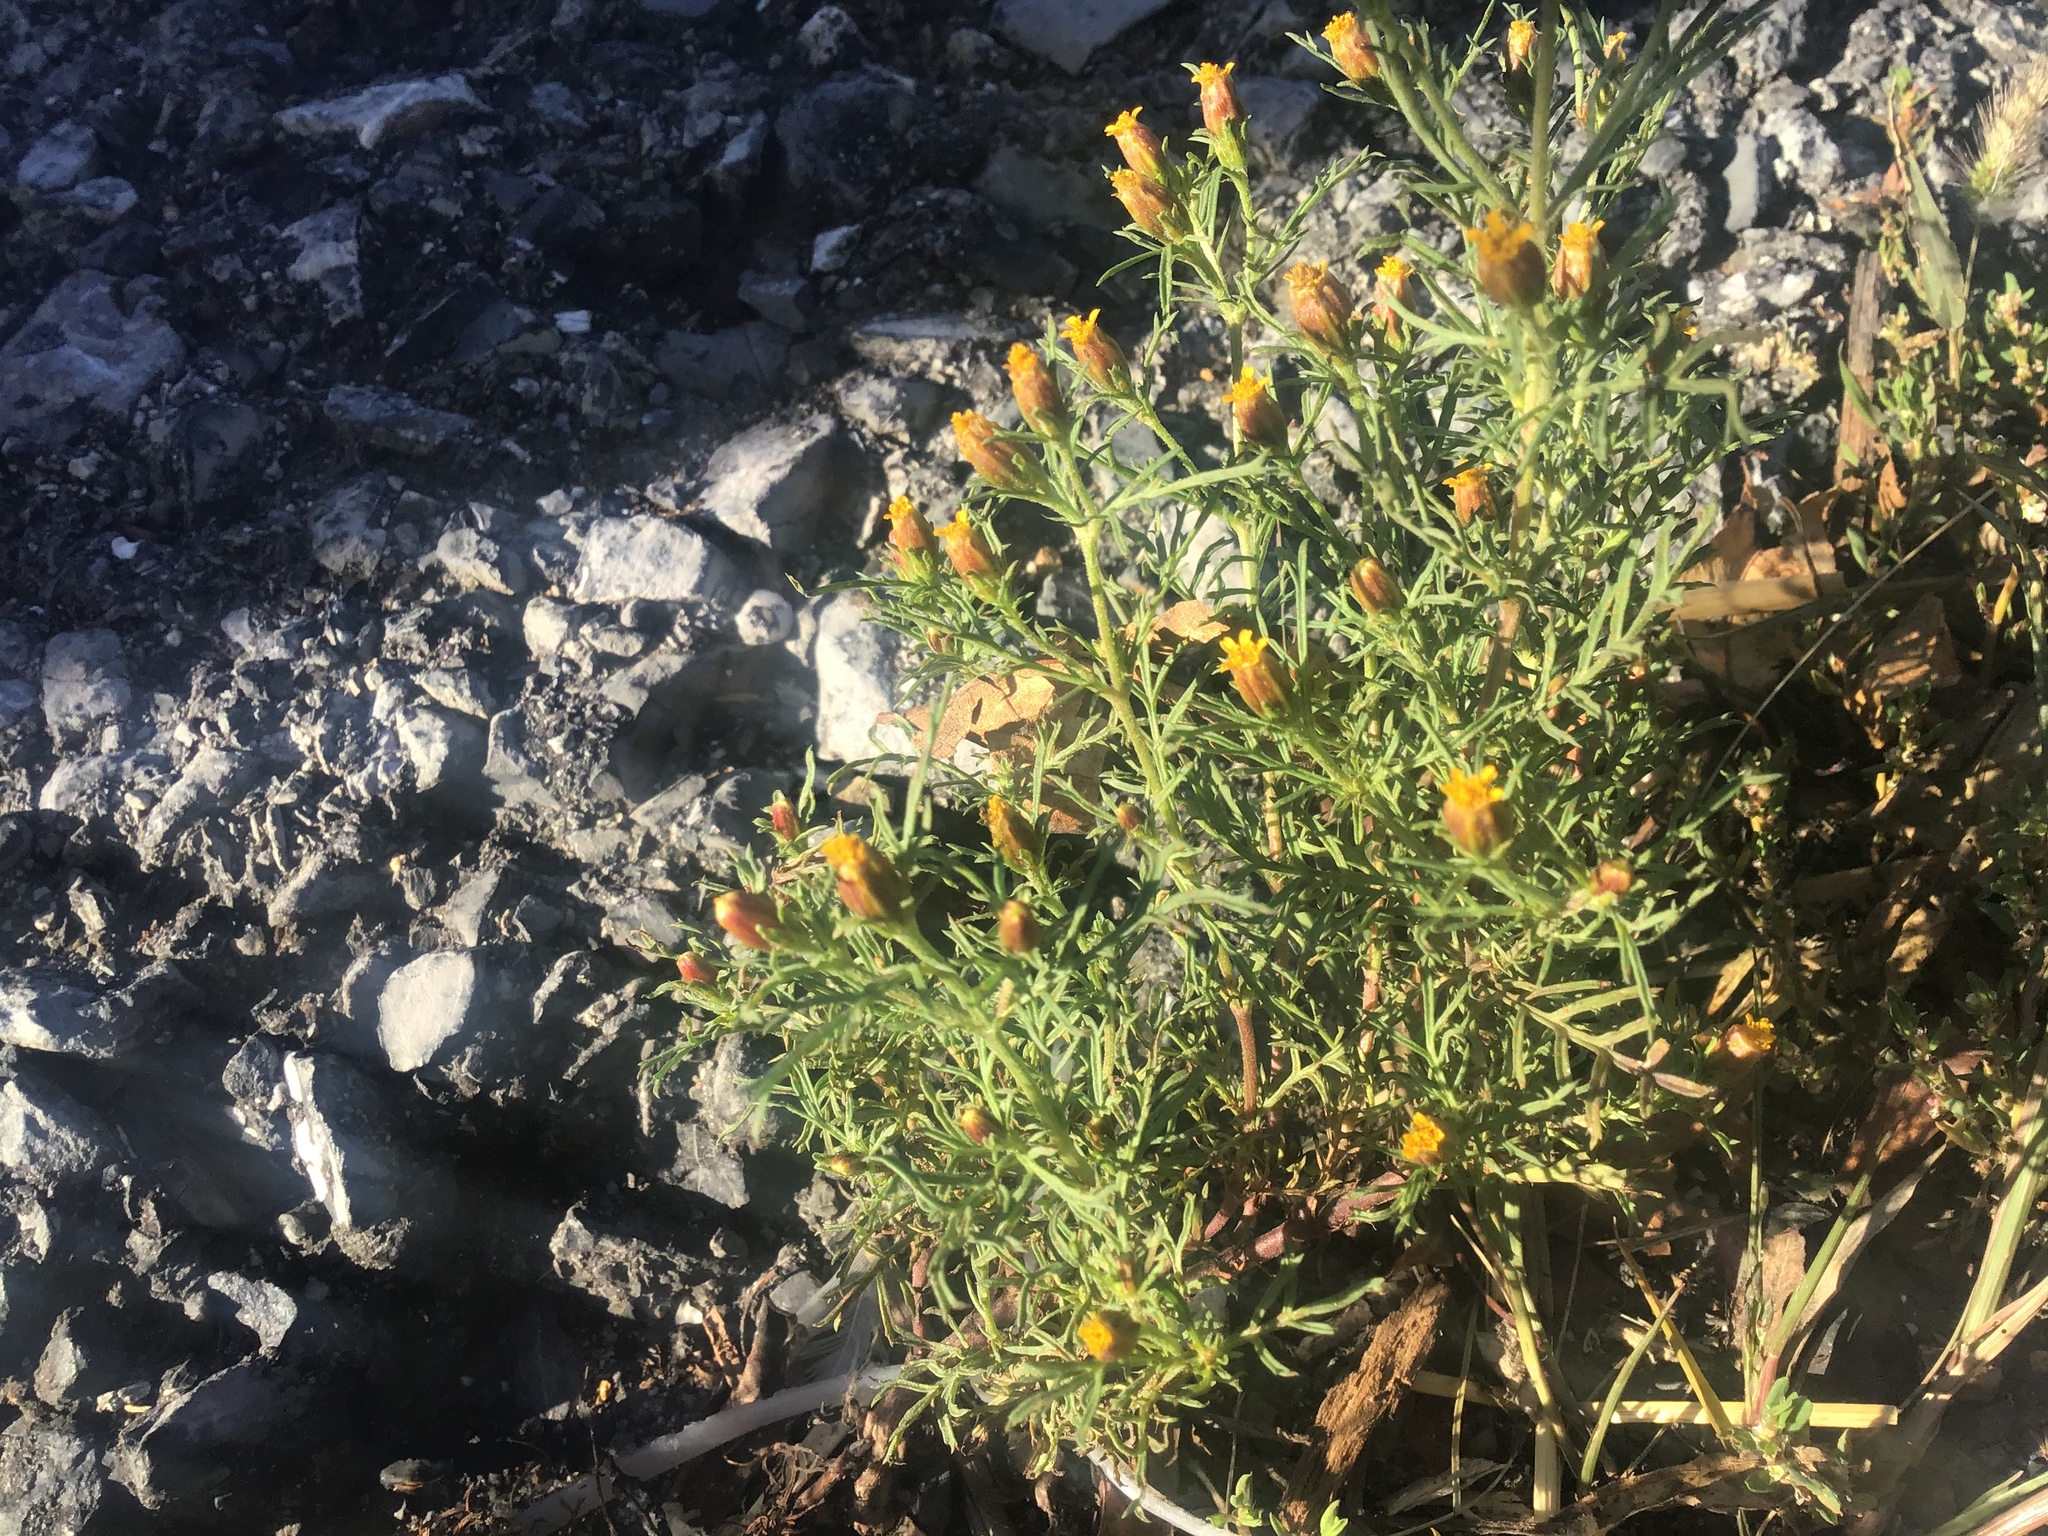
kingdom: Plantae
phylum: Tracheophyta
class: Magnoliopsida
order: Asterales
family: Asteraceae
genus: Dyssodia
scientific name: Dyssodia papposa
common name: Dogweed
